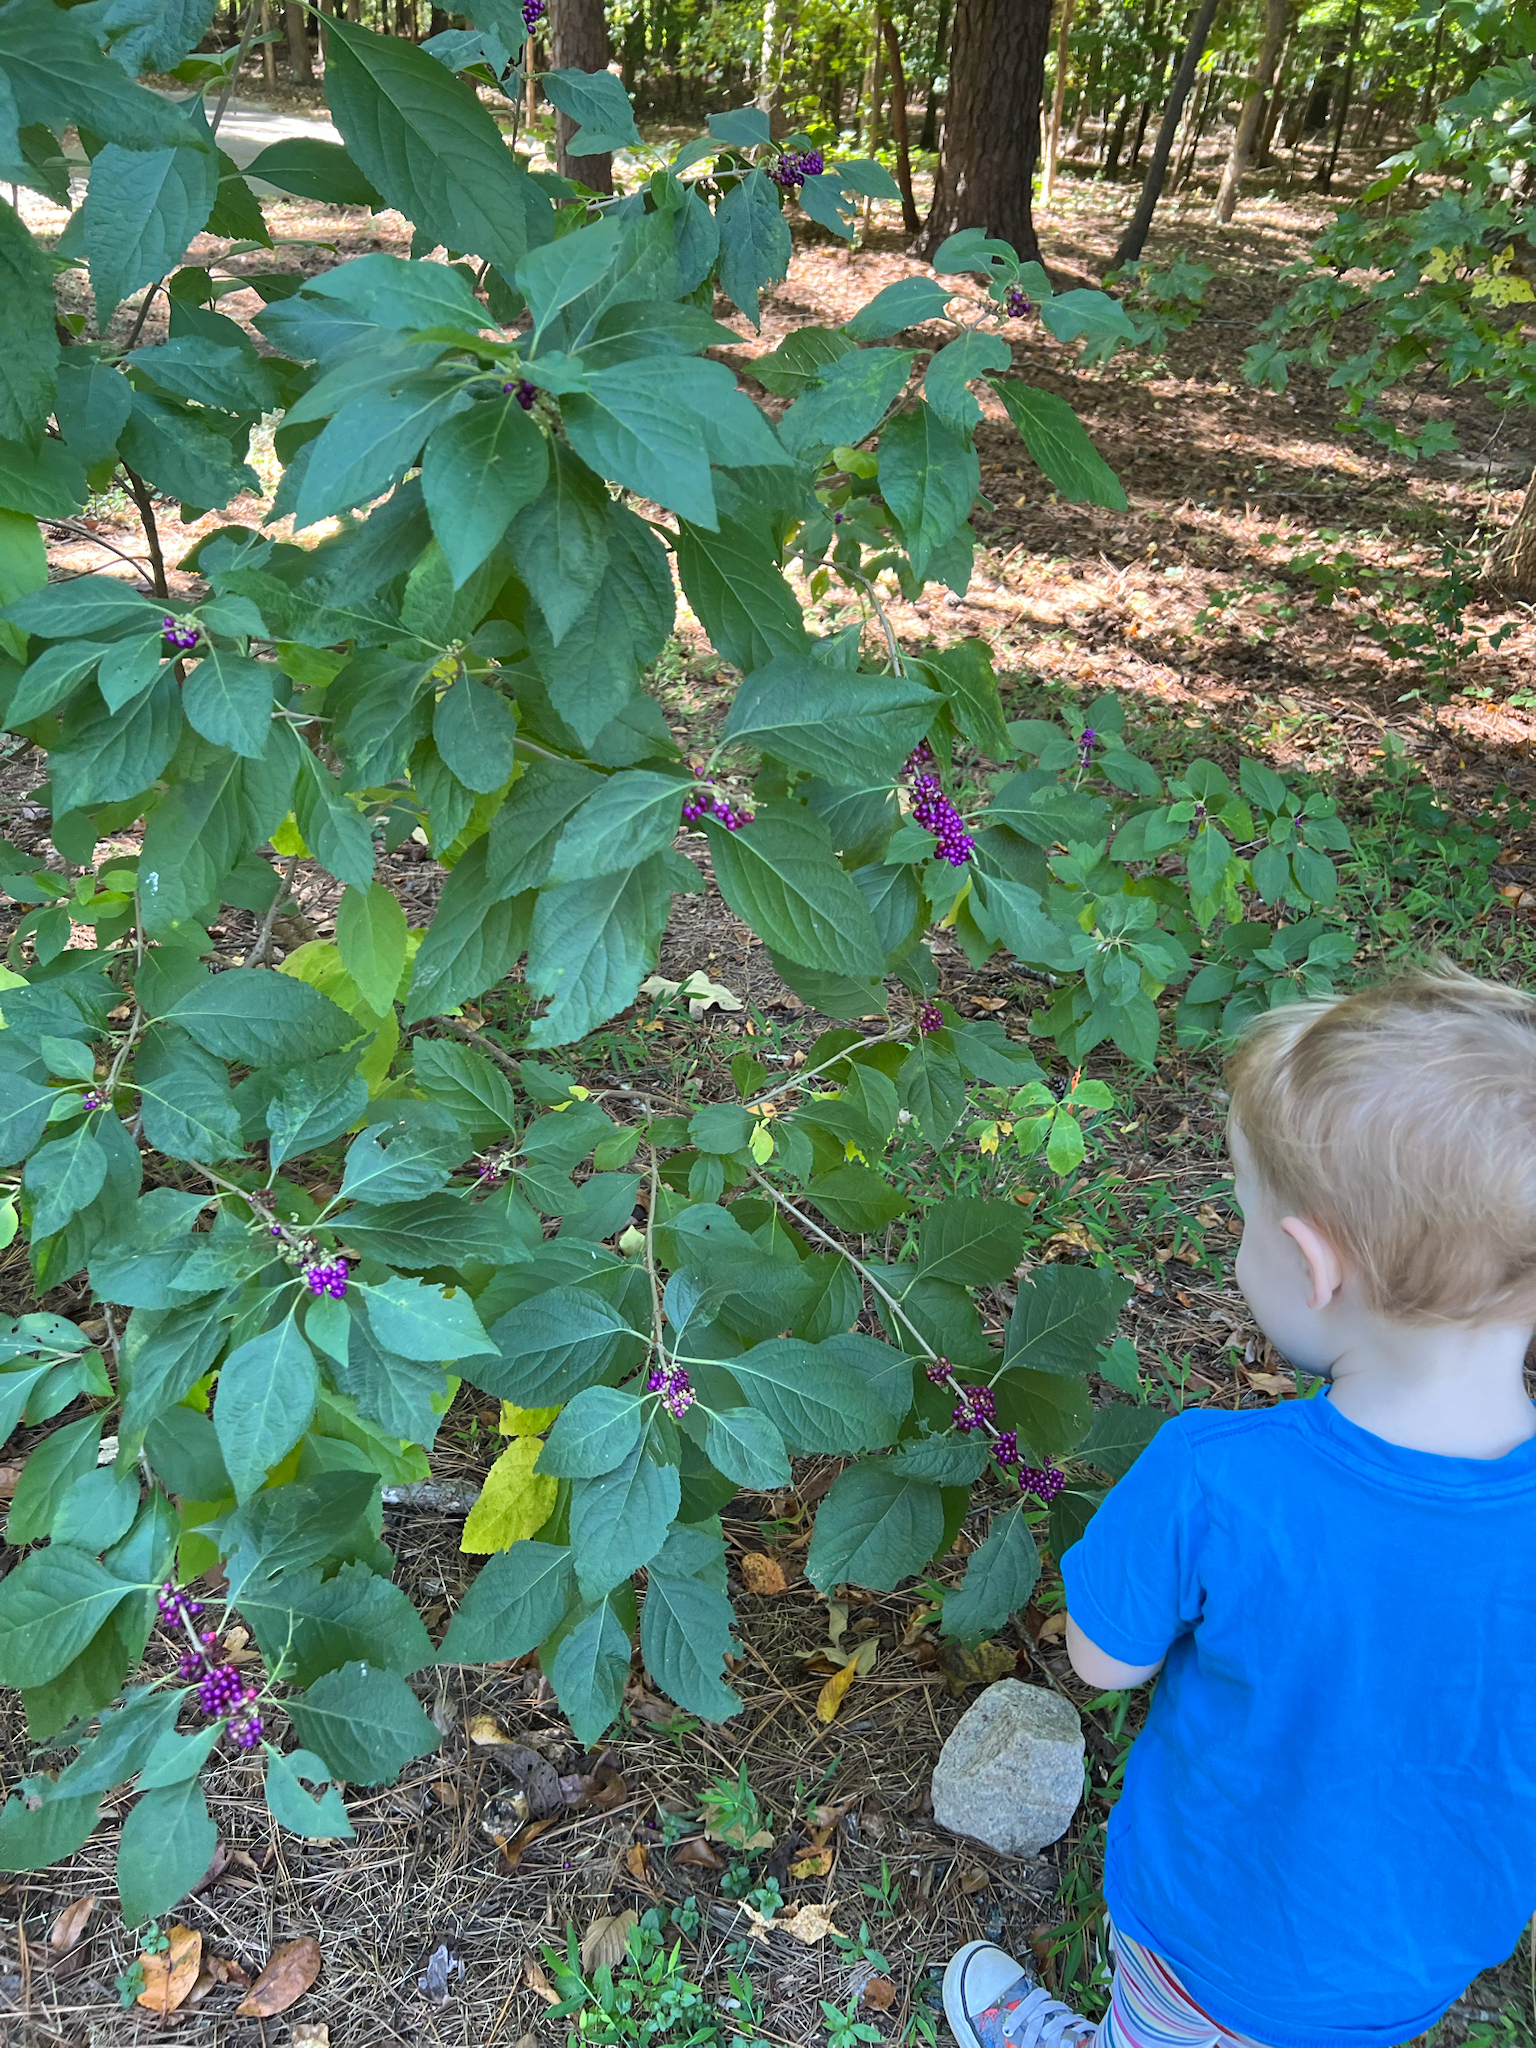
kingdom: Plantae
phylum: Tracheophyta
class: Magnoliopsida
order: Lamiales
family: Lamiaceae
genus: Callicarpa
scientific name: Callicarpa americana
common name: American beautyberry
